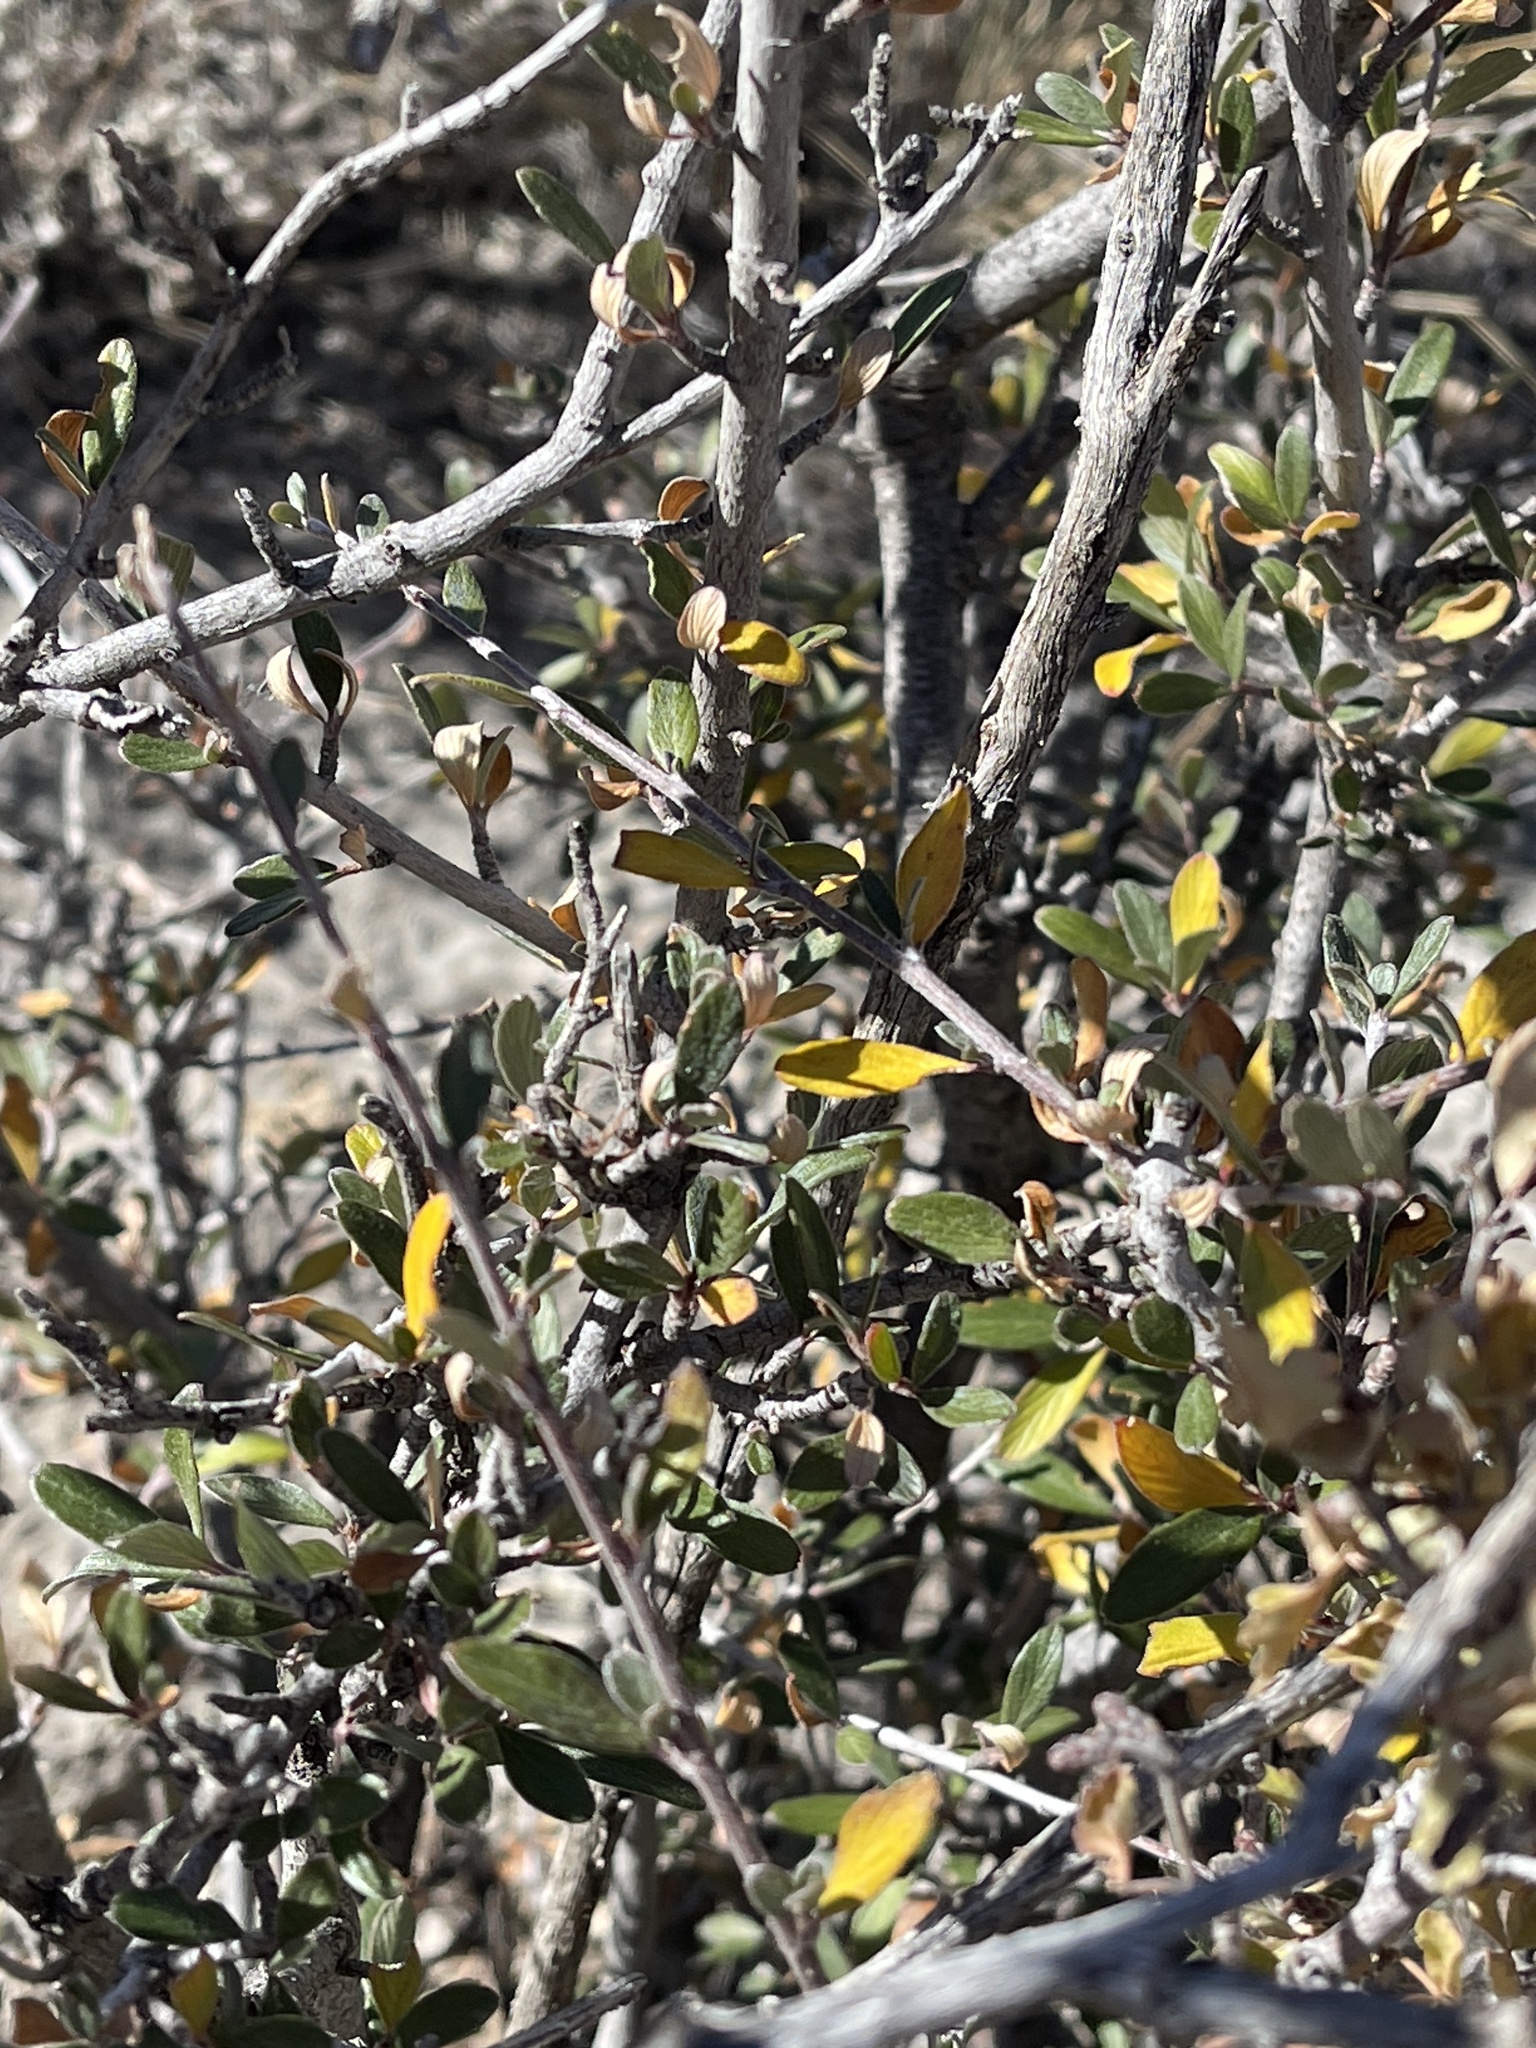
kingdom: Plantae
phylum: Tracheophyta
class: Magnoliopsida
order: Rosales
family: Rosaceae
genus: Cercocarpus
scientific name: Cercocarpus breviflorus
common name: Wright's mountain-mahogany
